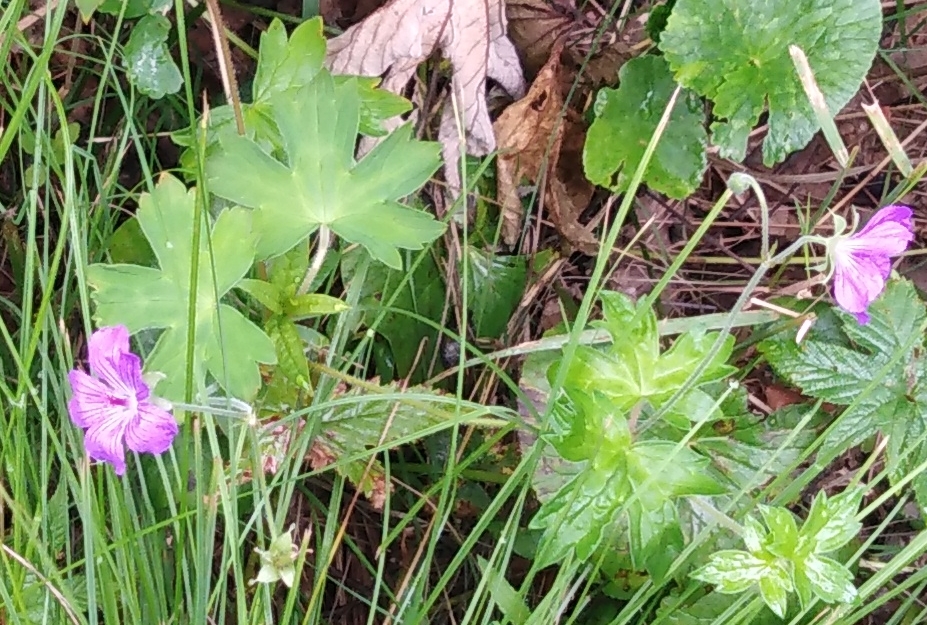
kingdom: Plantae
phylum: Tracheophyta
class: Magnoliopsida
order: Geraniales
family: Geraniaceae
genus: Geranium
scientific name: Geranium wlassovianum
